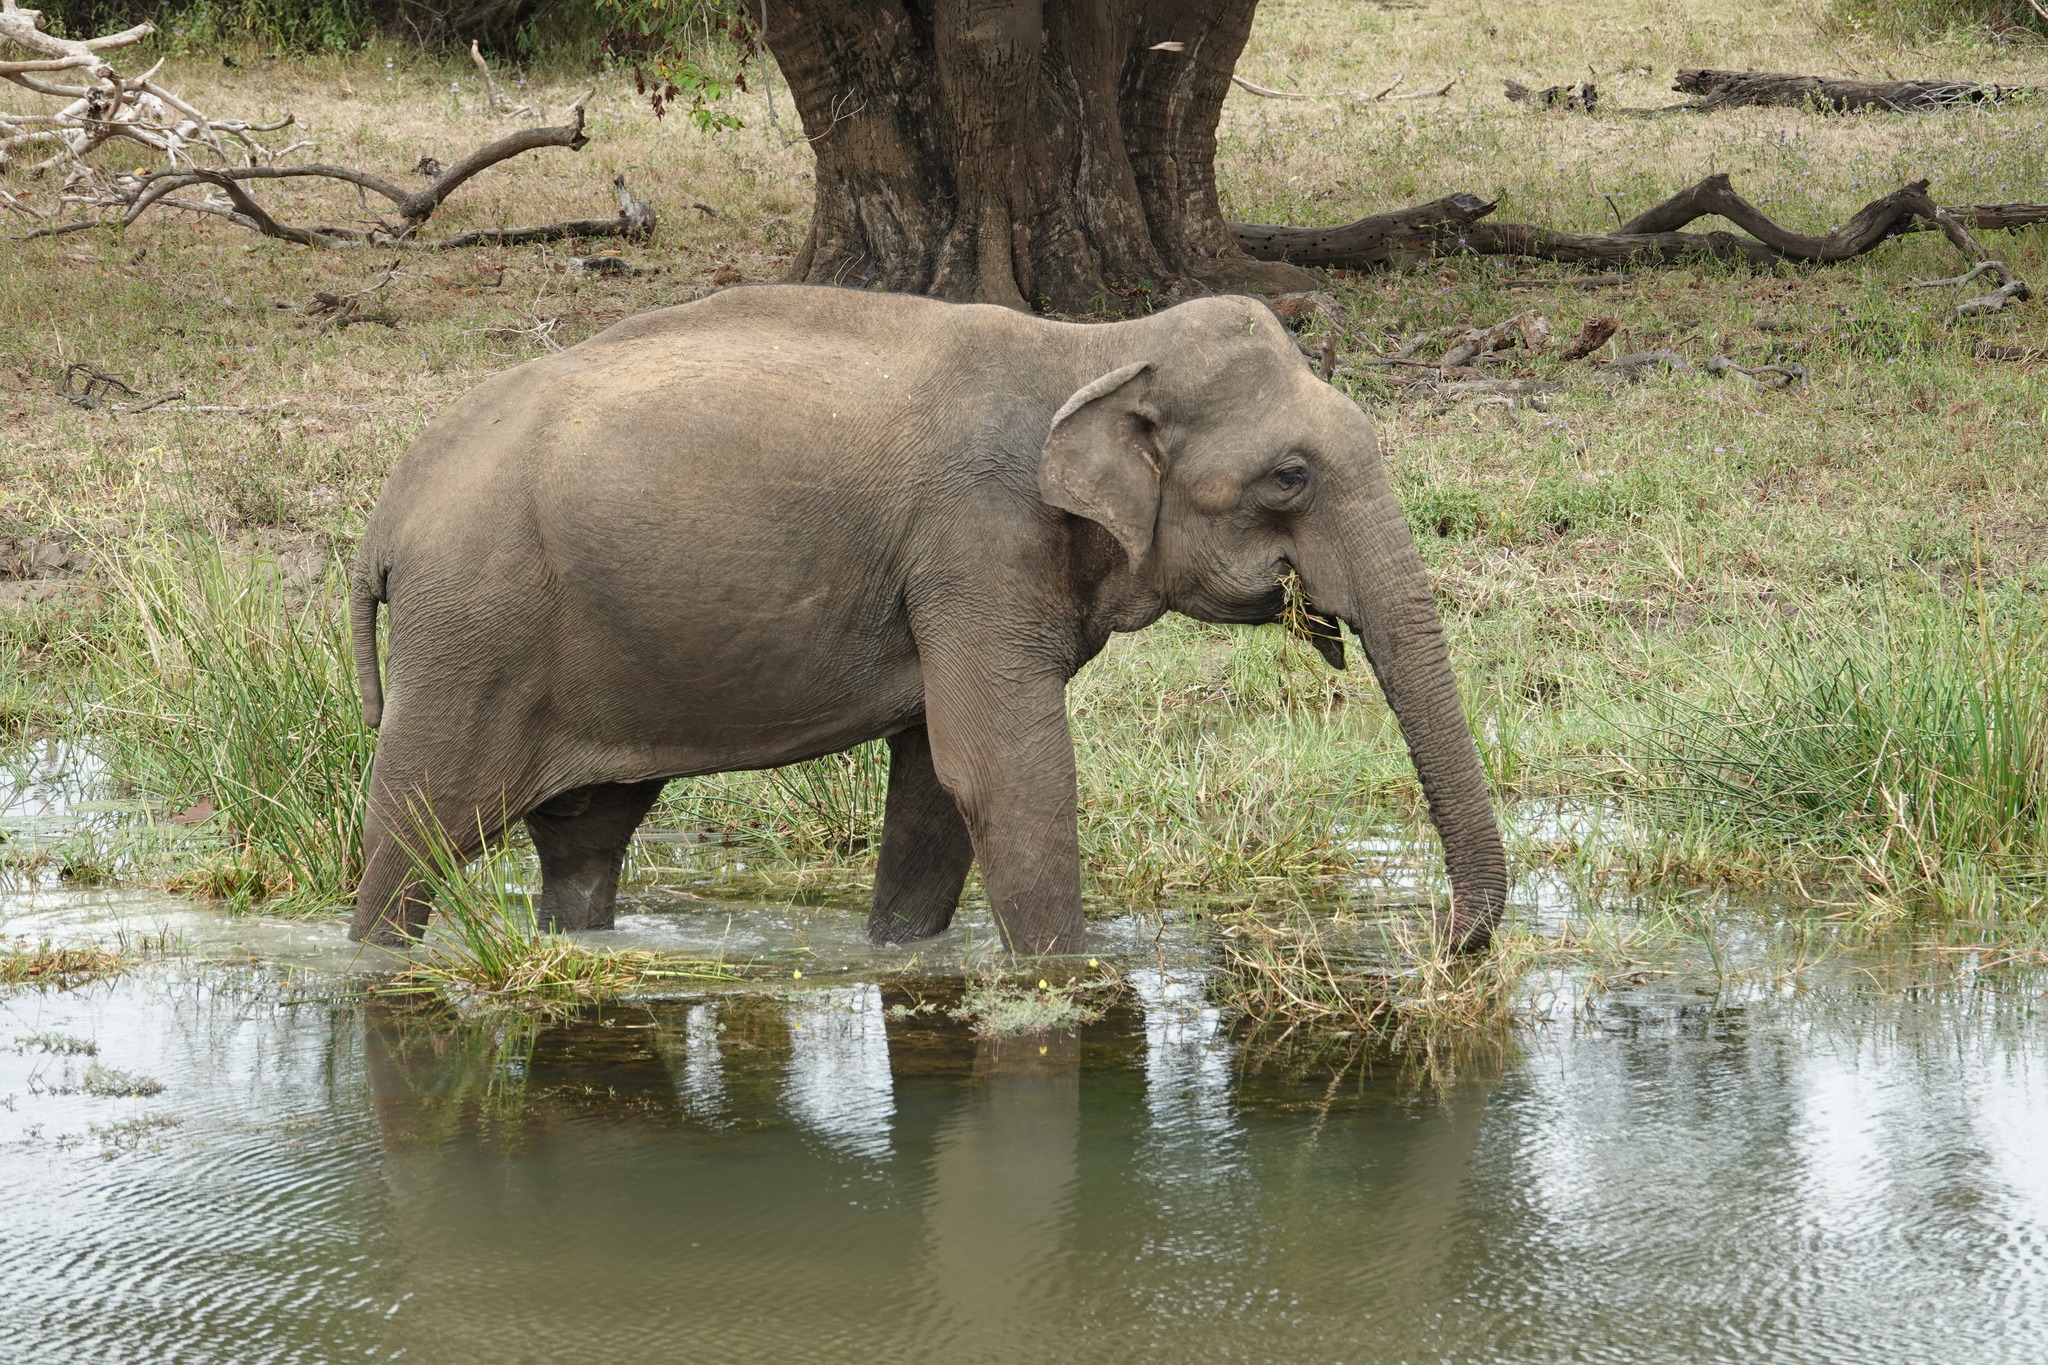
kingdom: Animalia
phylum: Chordata
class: Mammalia
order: Proboscidea
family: Elephantidae
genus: Elephas
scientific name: Elephas maximus
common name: Asian elephant
